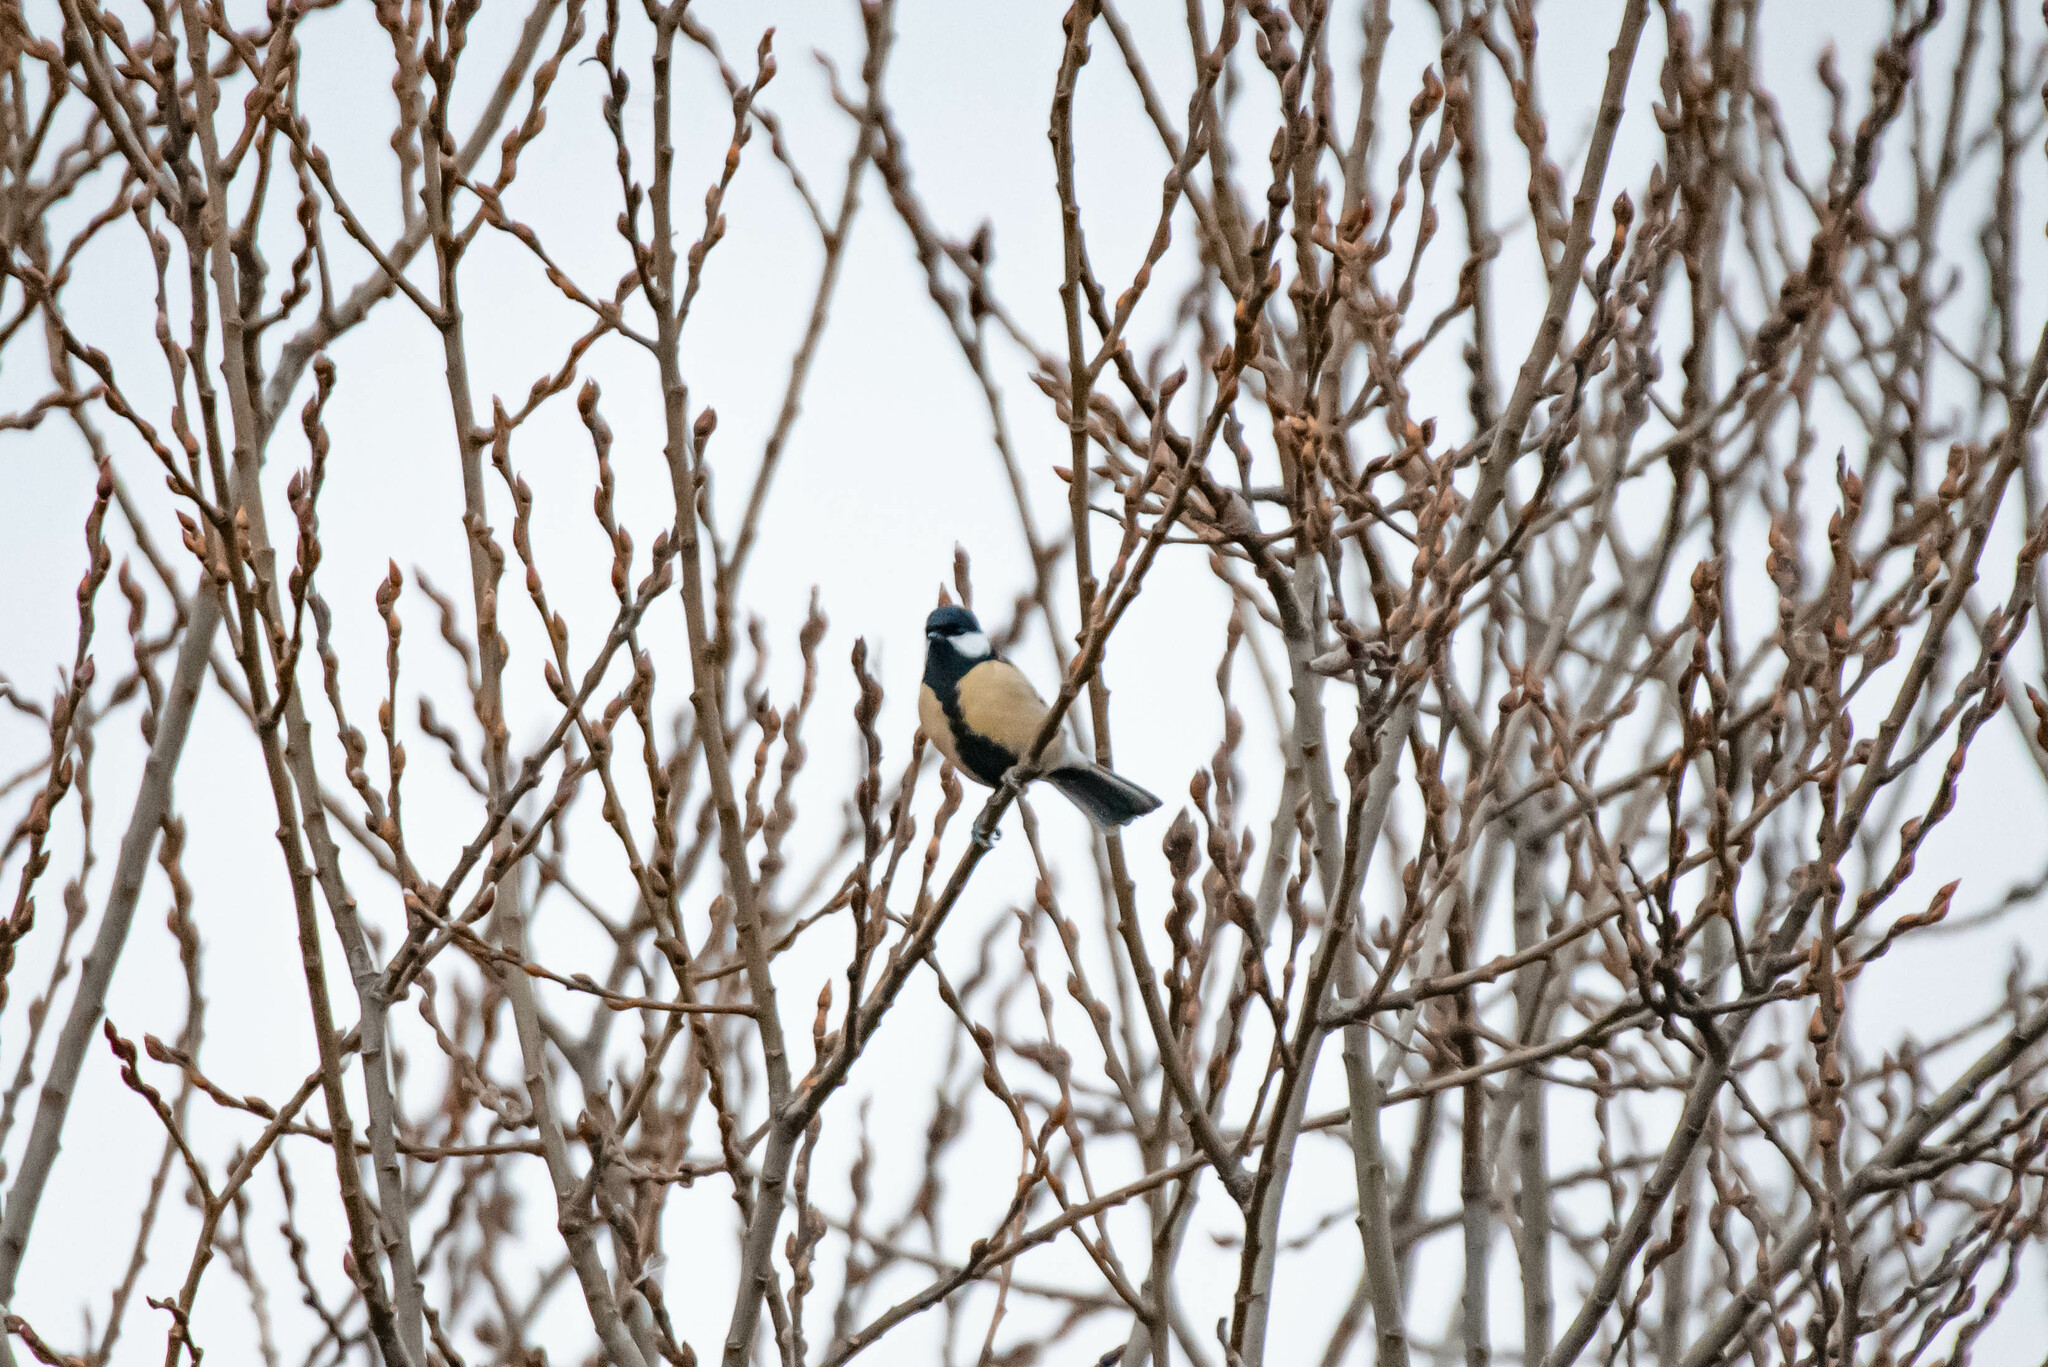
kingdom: Animalia
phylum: Chordata
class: Aves
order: Passeriformes
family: Paridae
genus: Parus
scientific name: Parus major
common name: Great tit
